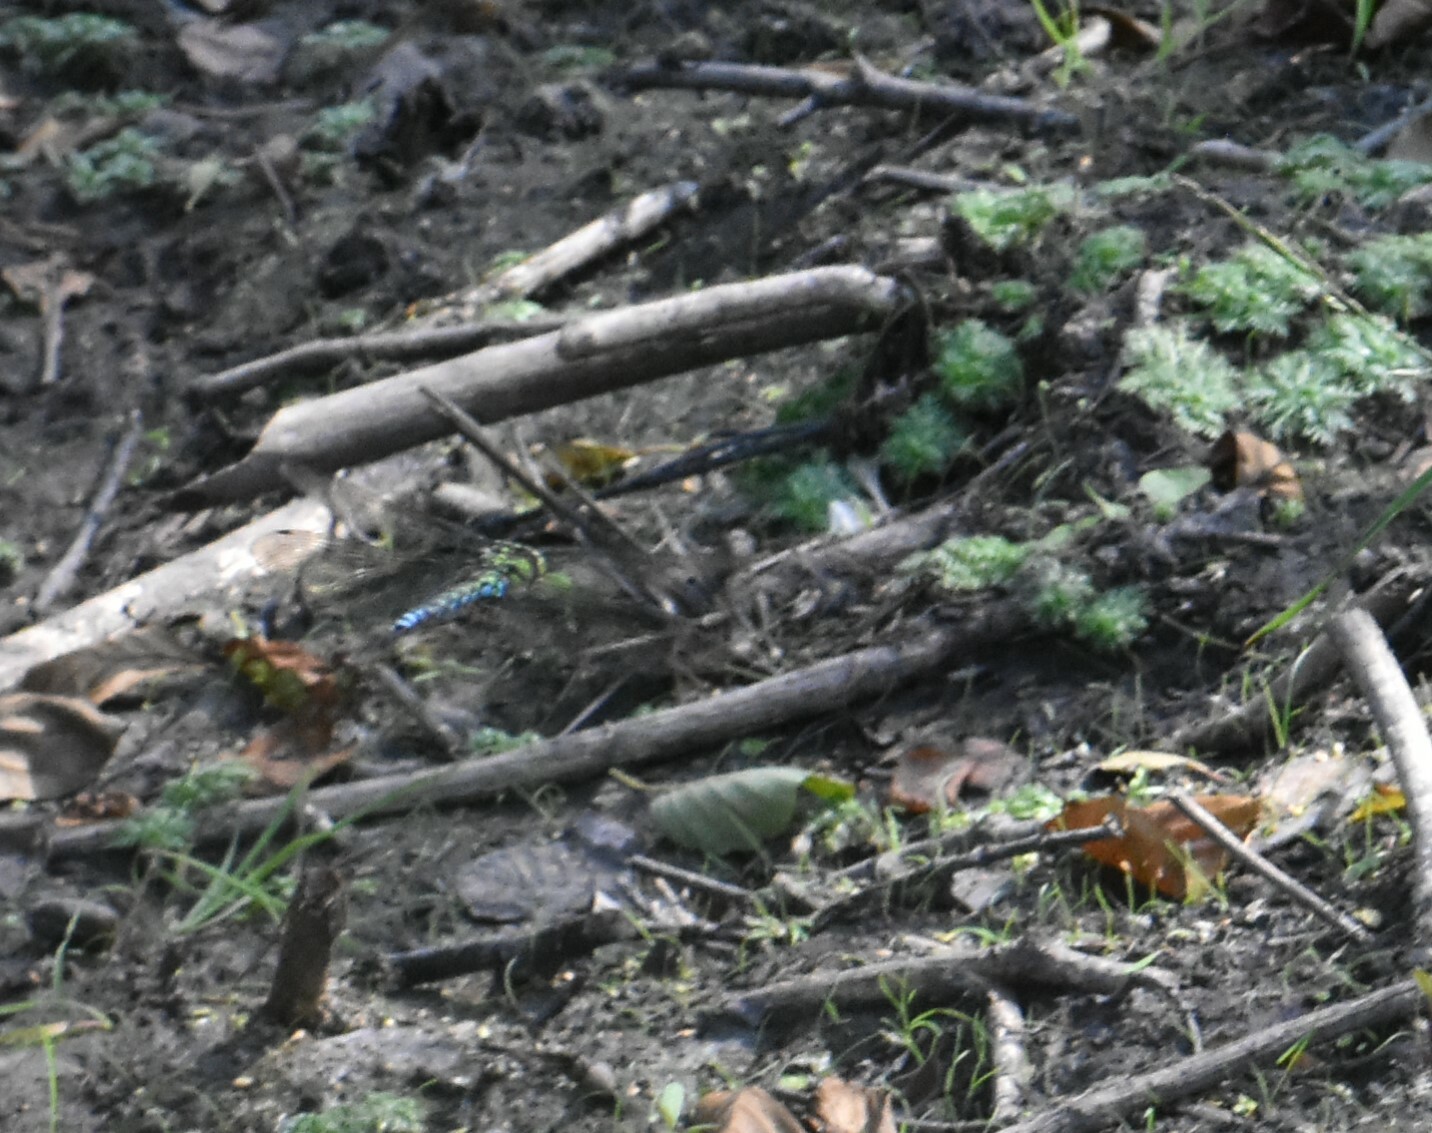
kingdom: Animalia
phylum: Arthropoda
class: Insecta
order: Odonata
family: Aeshnidae
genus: Aeshna
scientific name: Aeshna cyanea
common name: Southern hawker
